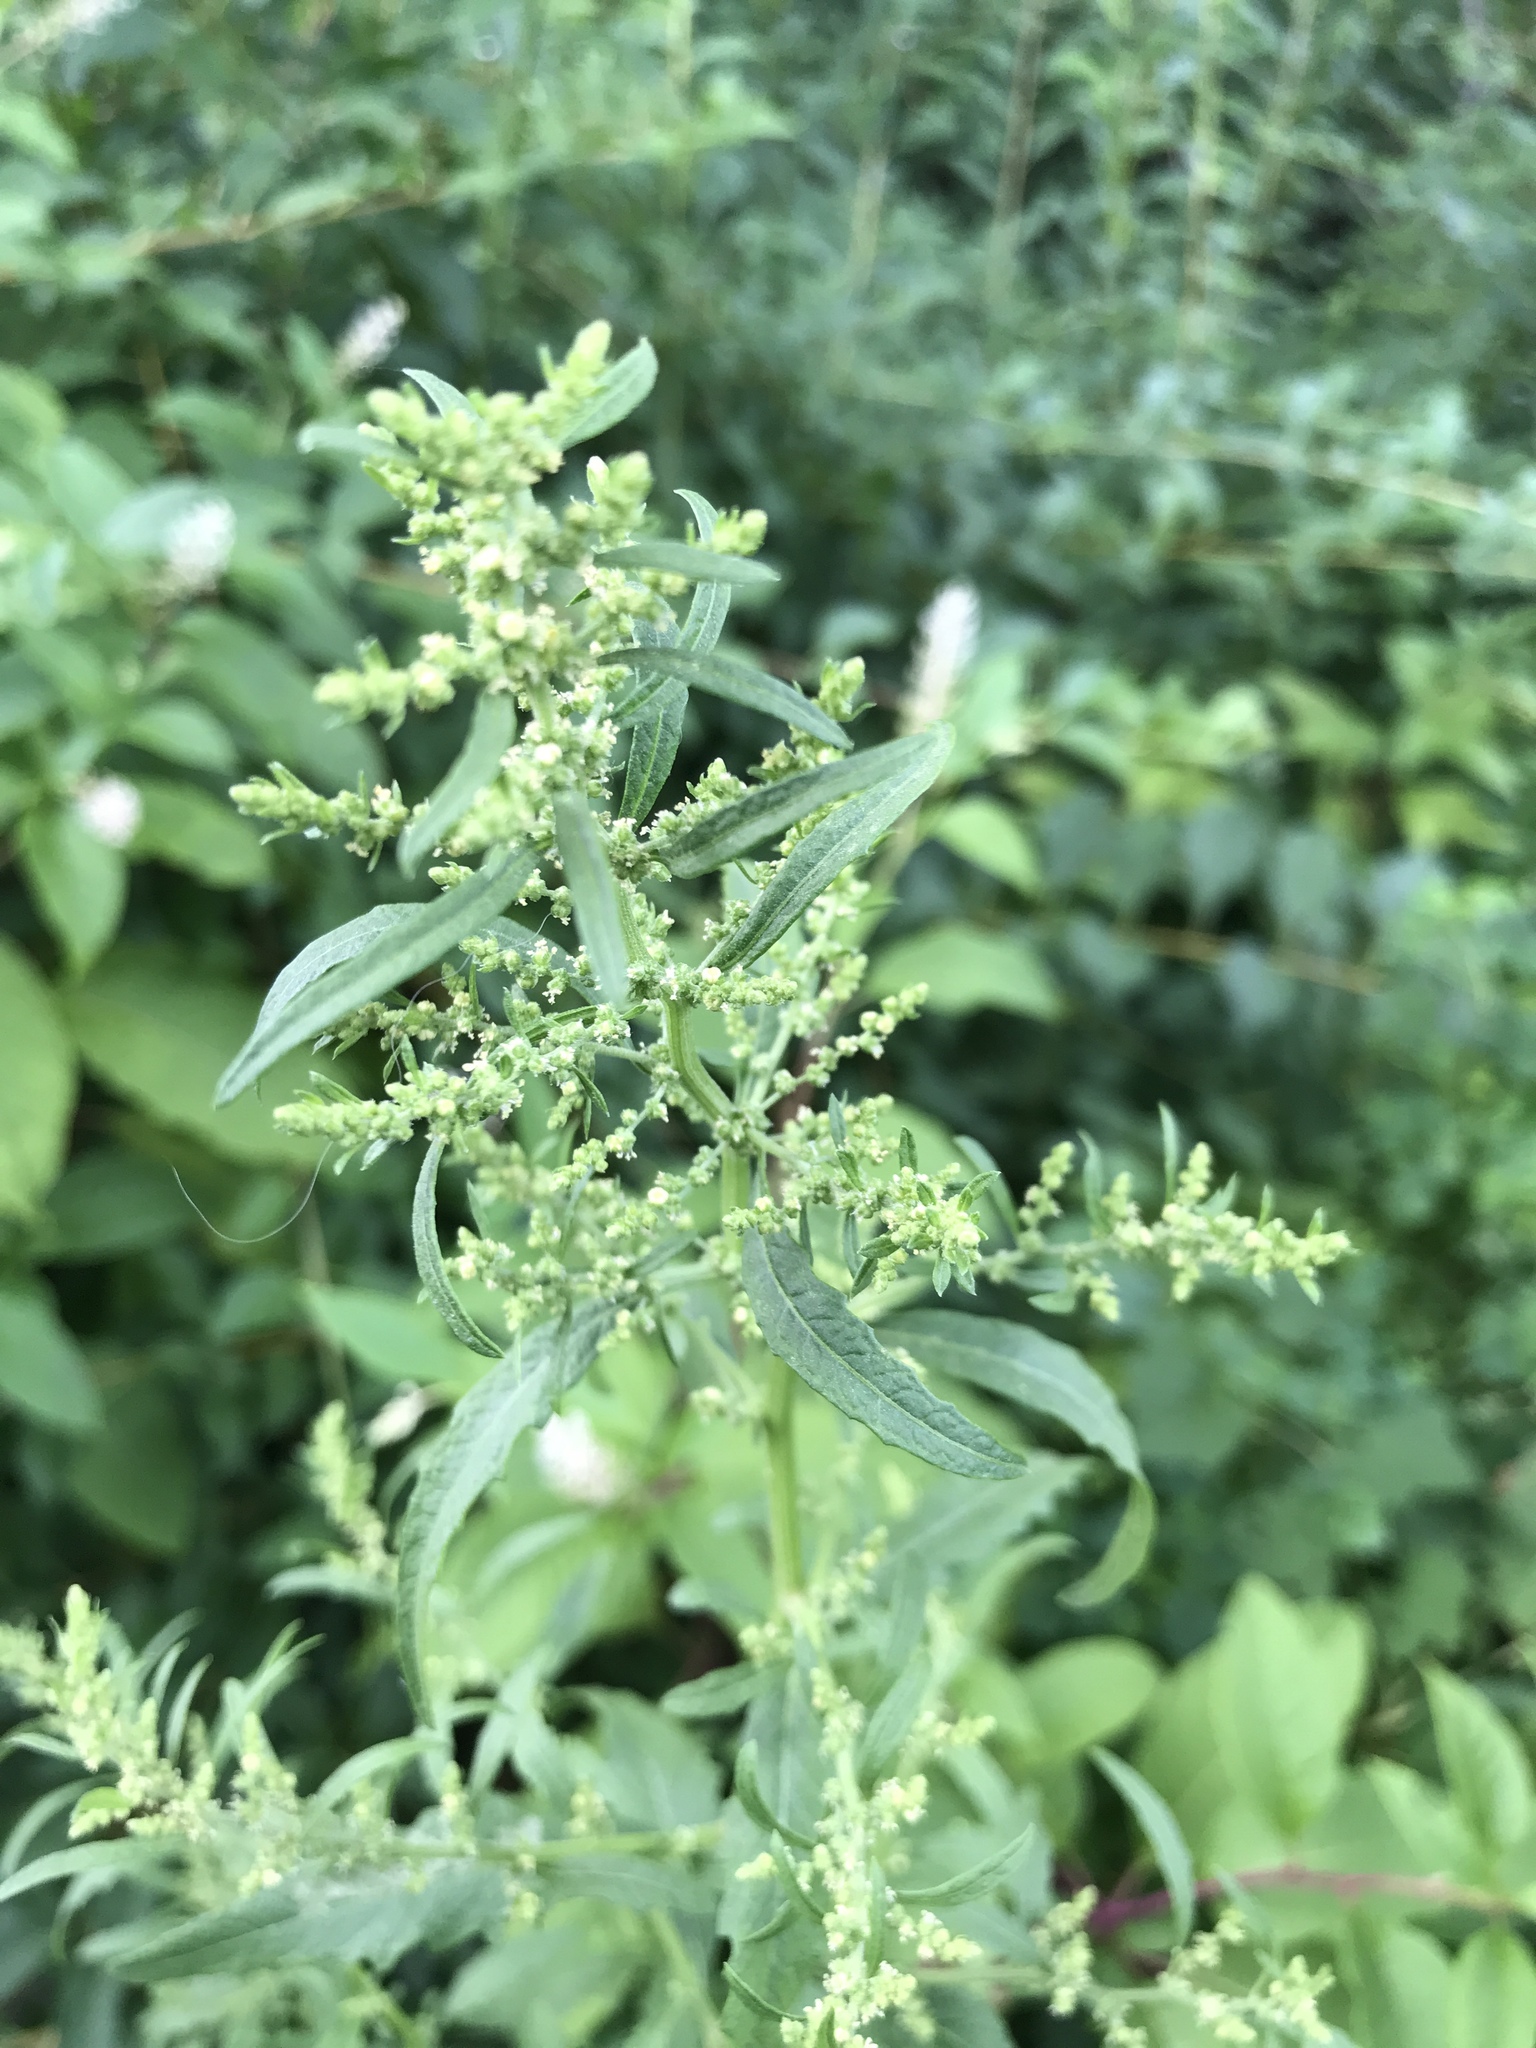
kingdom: Plantae
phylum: Tracheophyta
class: Magnoliopsida
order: Caryophyllales
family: Amaranthaceae
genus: Dysphania
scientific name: Dysphania ambrosioides
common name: Wormseed
